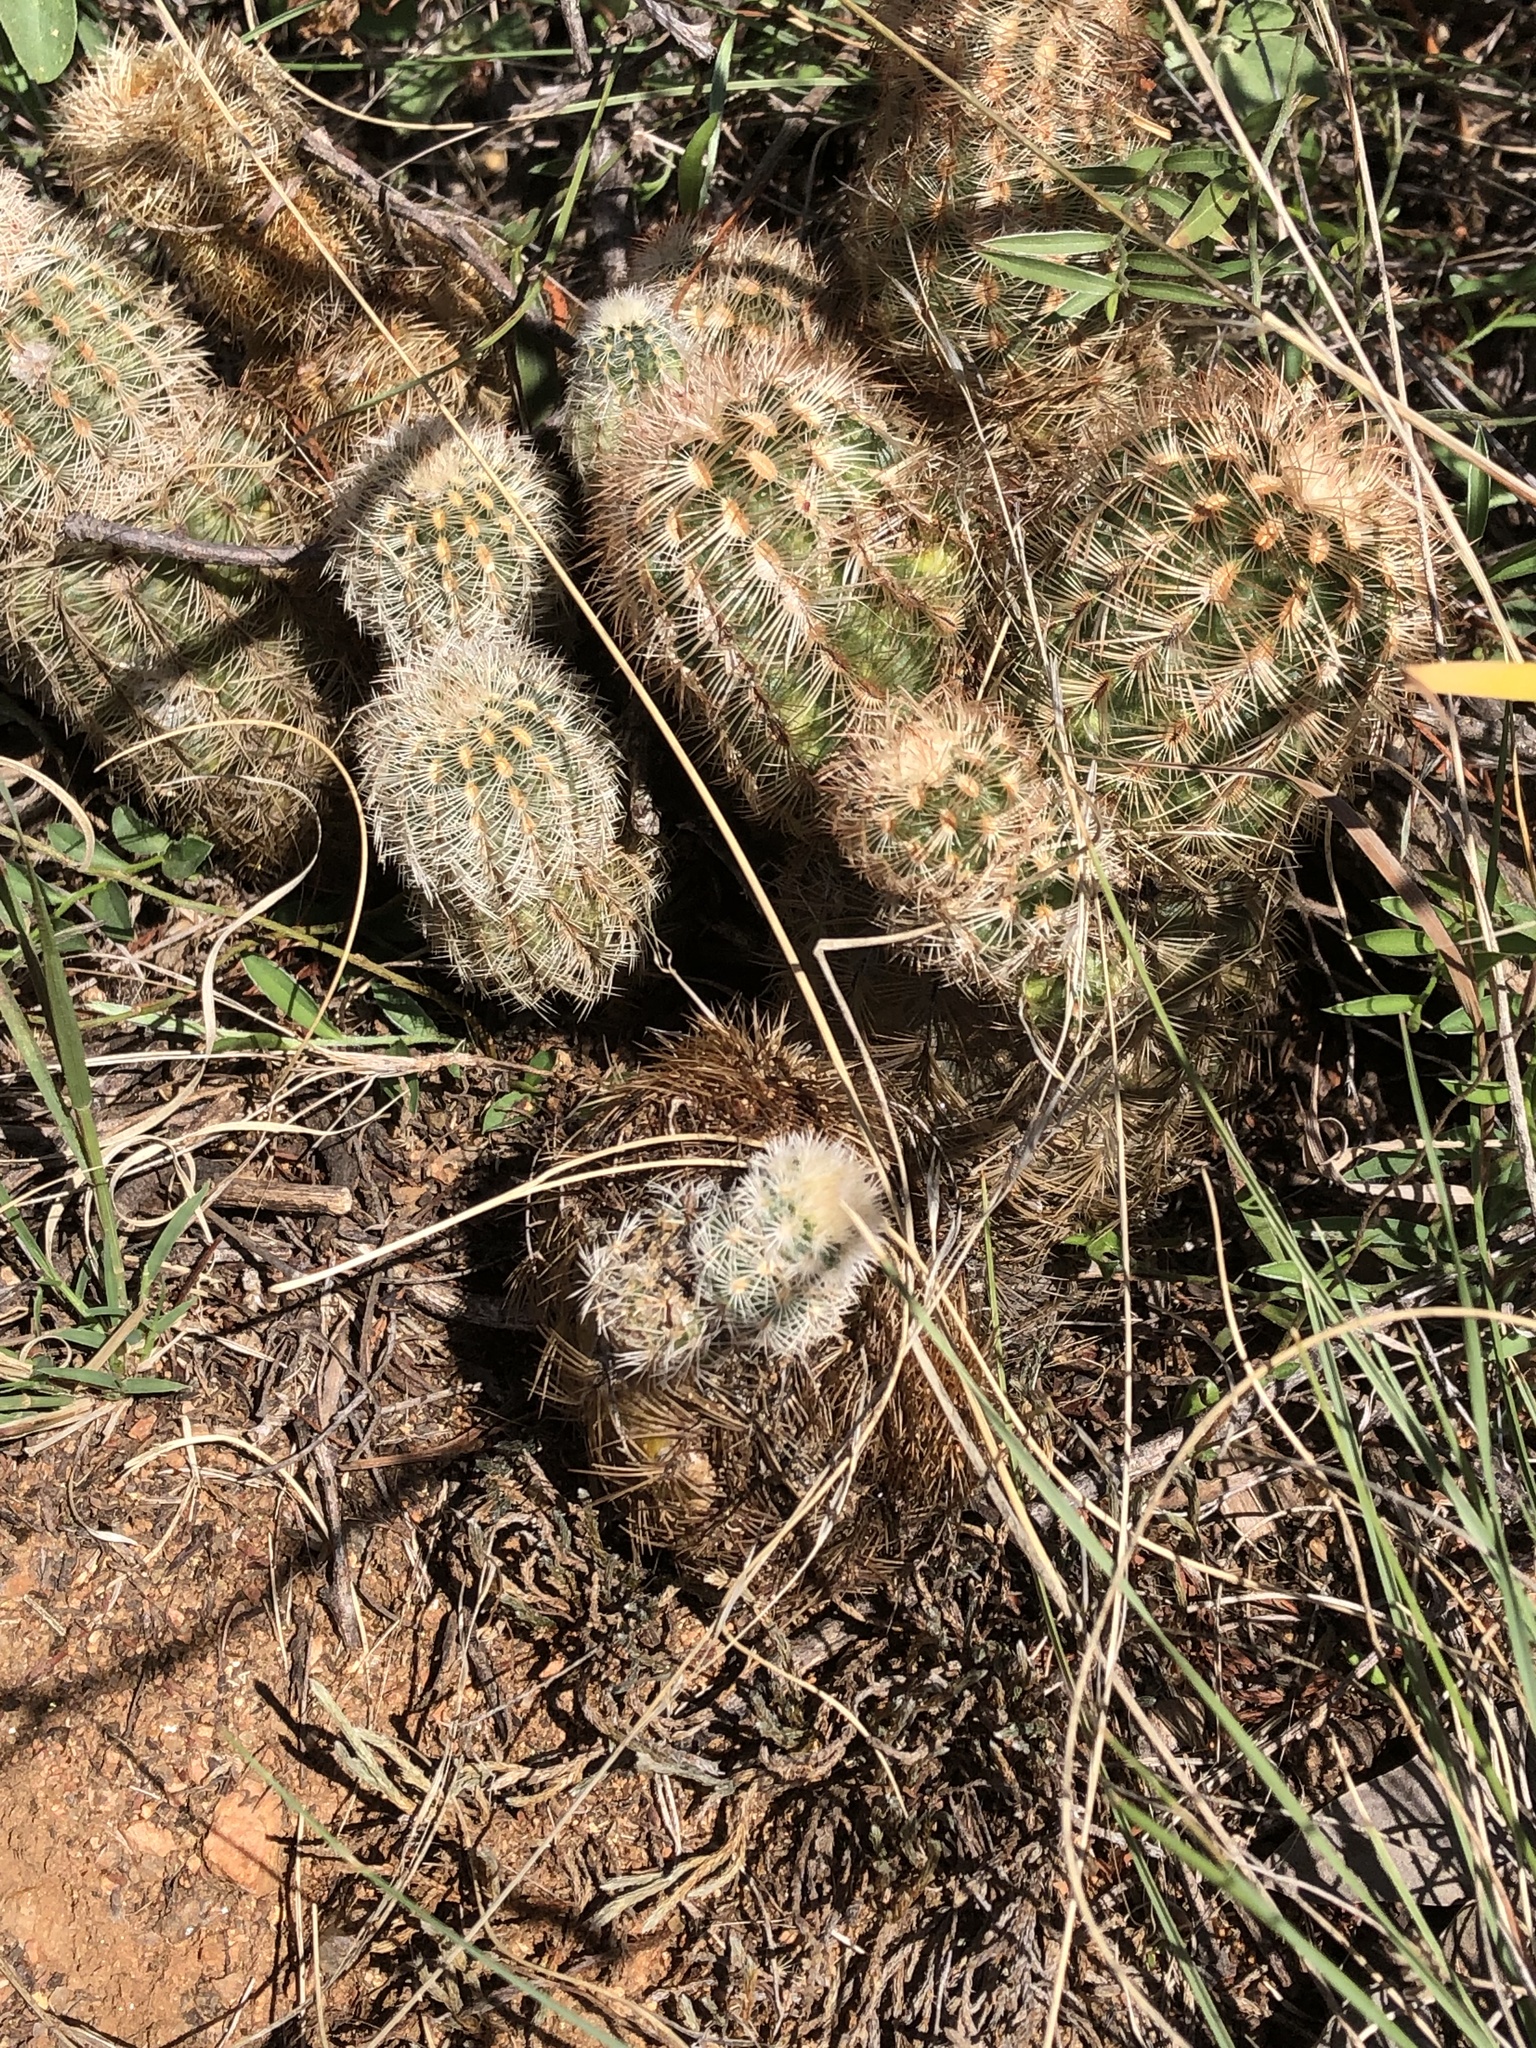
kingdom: Plantae
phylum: Tracheophyta
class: Magnoliopsida
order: Caryophyllales
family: Cactaceae
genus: Echinocereus
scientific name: Echinocereus reichenbachii
